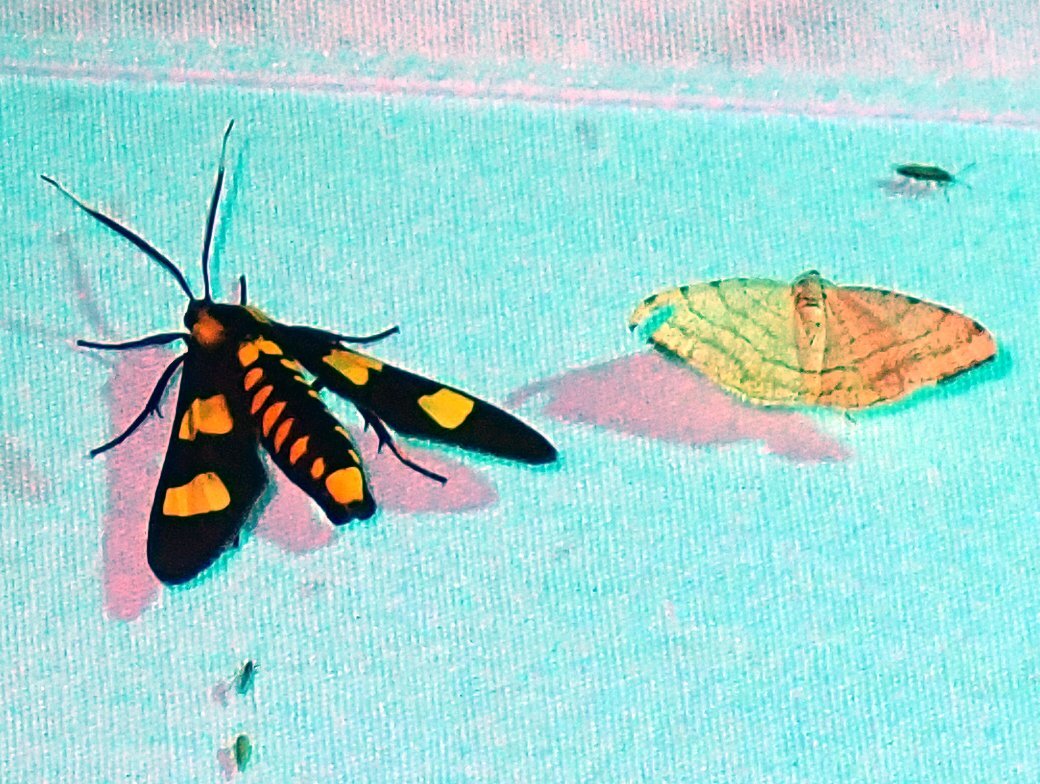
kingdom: Animalia
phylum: Arthropoda
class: Insecta
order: Lepidoptera
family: Erebidae
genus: Phoenicoprocta
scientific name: Phoenicoprocta hampsonii
